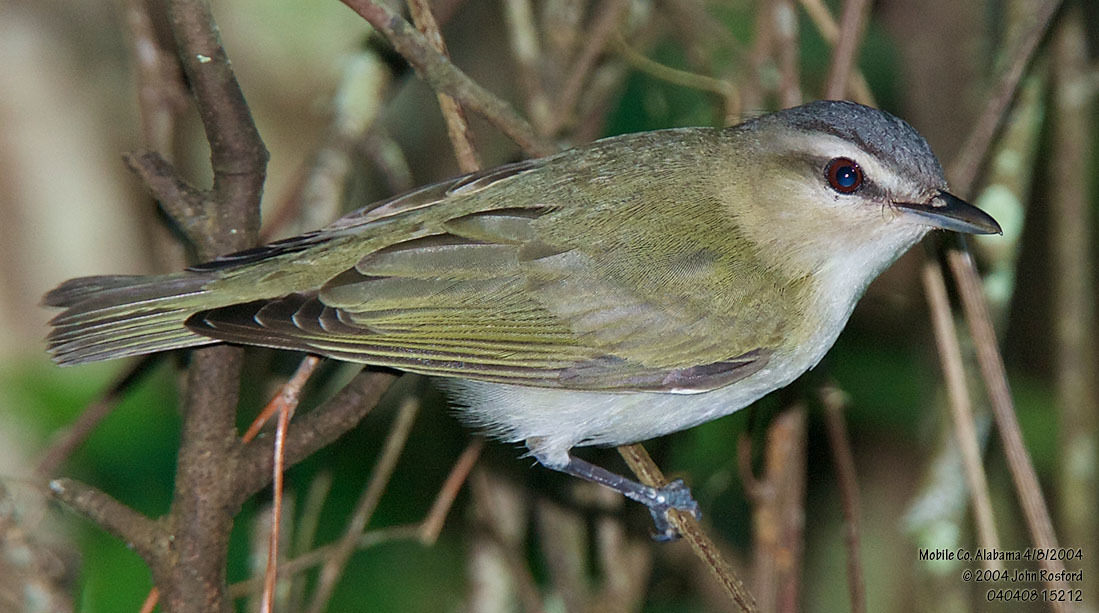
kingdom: Animalia
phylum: Chordata
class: Aves
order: Passeriformes
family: Vireonidae
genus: Vireo
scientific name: Vireo olivaceus
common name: Red-eyed vireo
